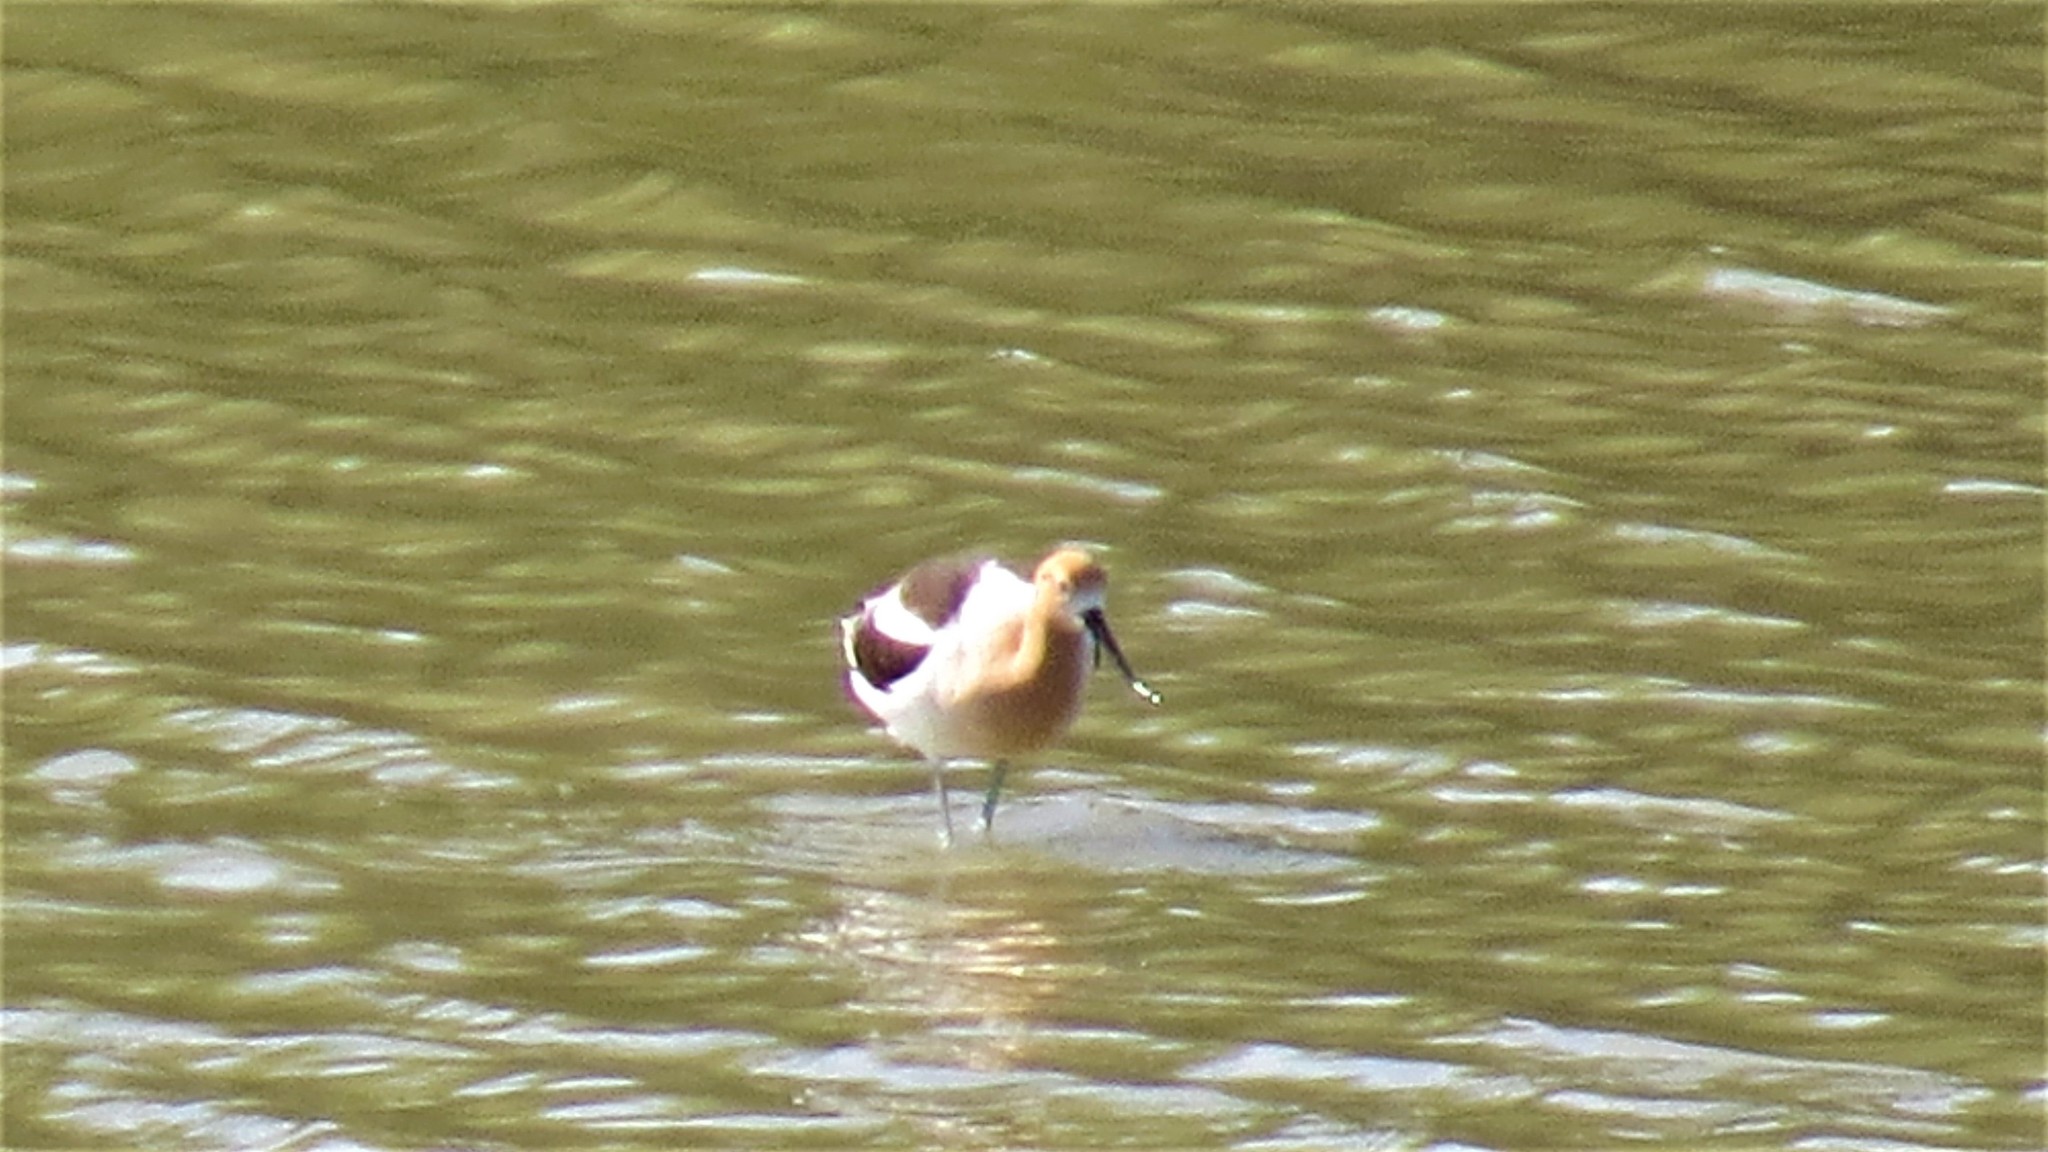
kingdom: Animalia
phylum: Chordata
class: Aves
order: Charadriiformes
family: Recurvirostridae
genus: Recurvirostra
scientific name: Recurvirostra americana
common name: American avocet
